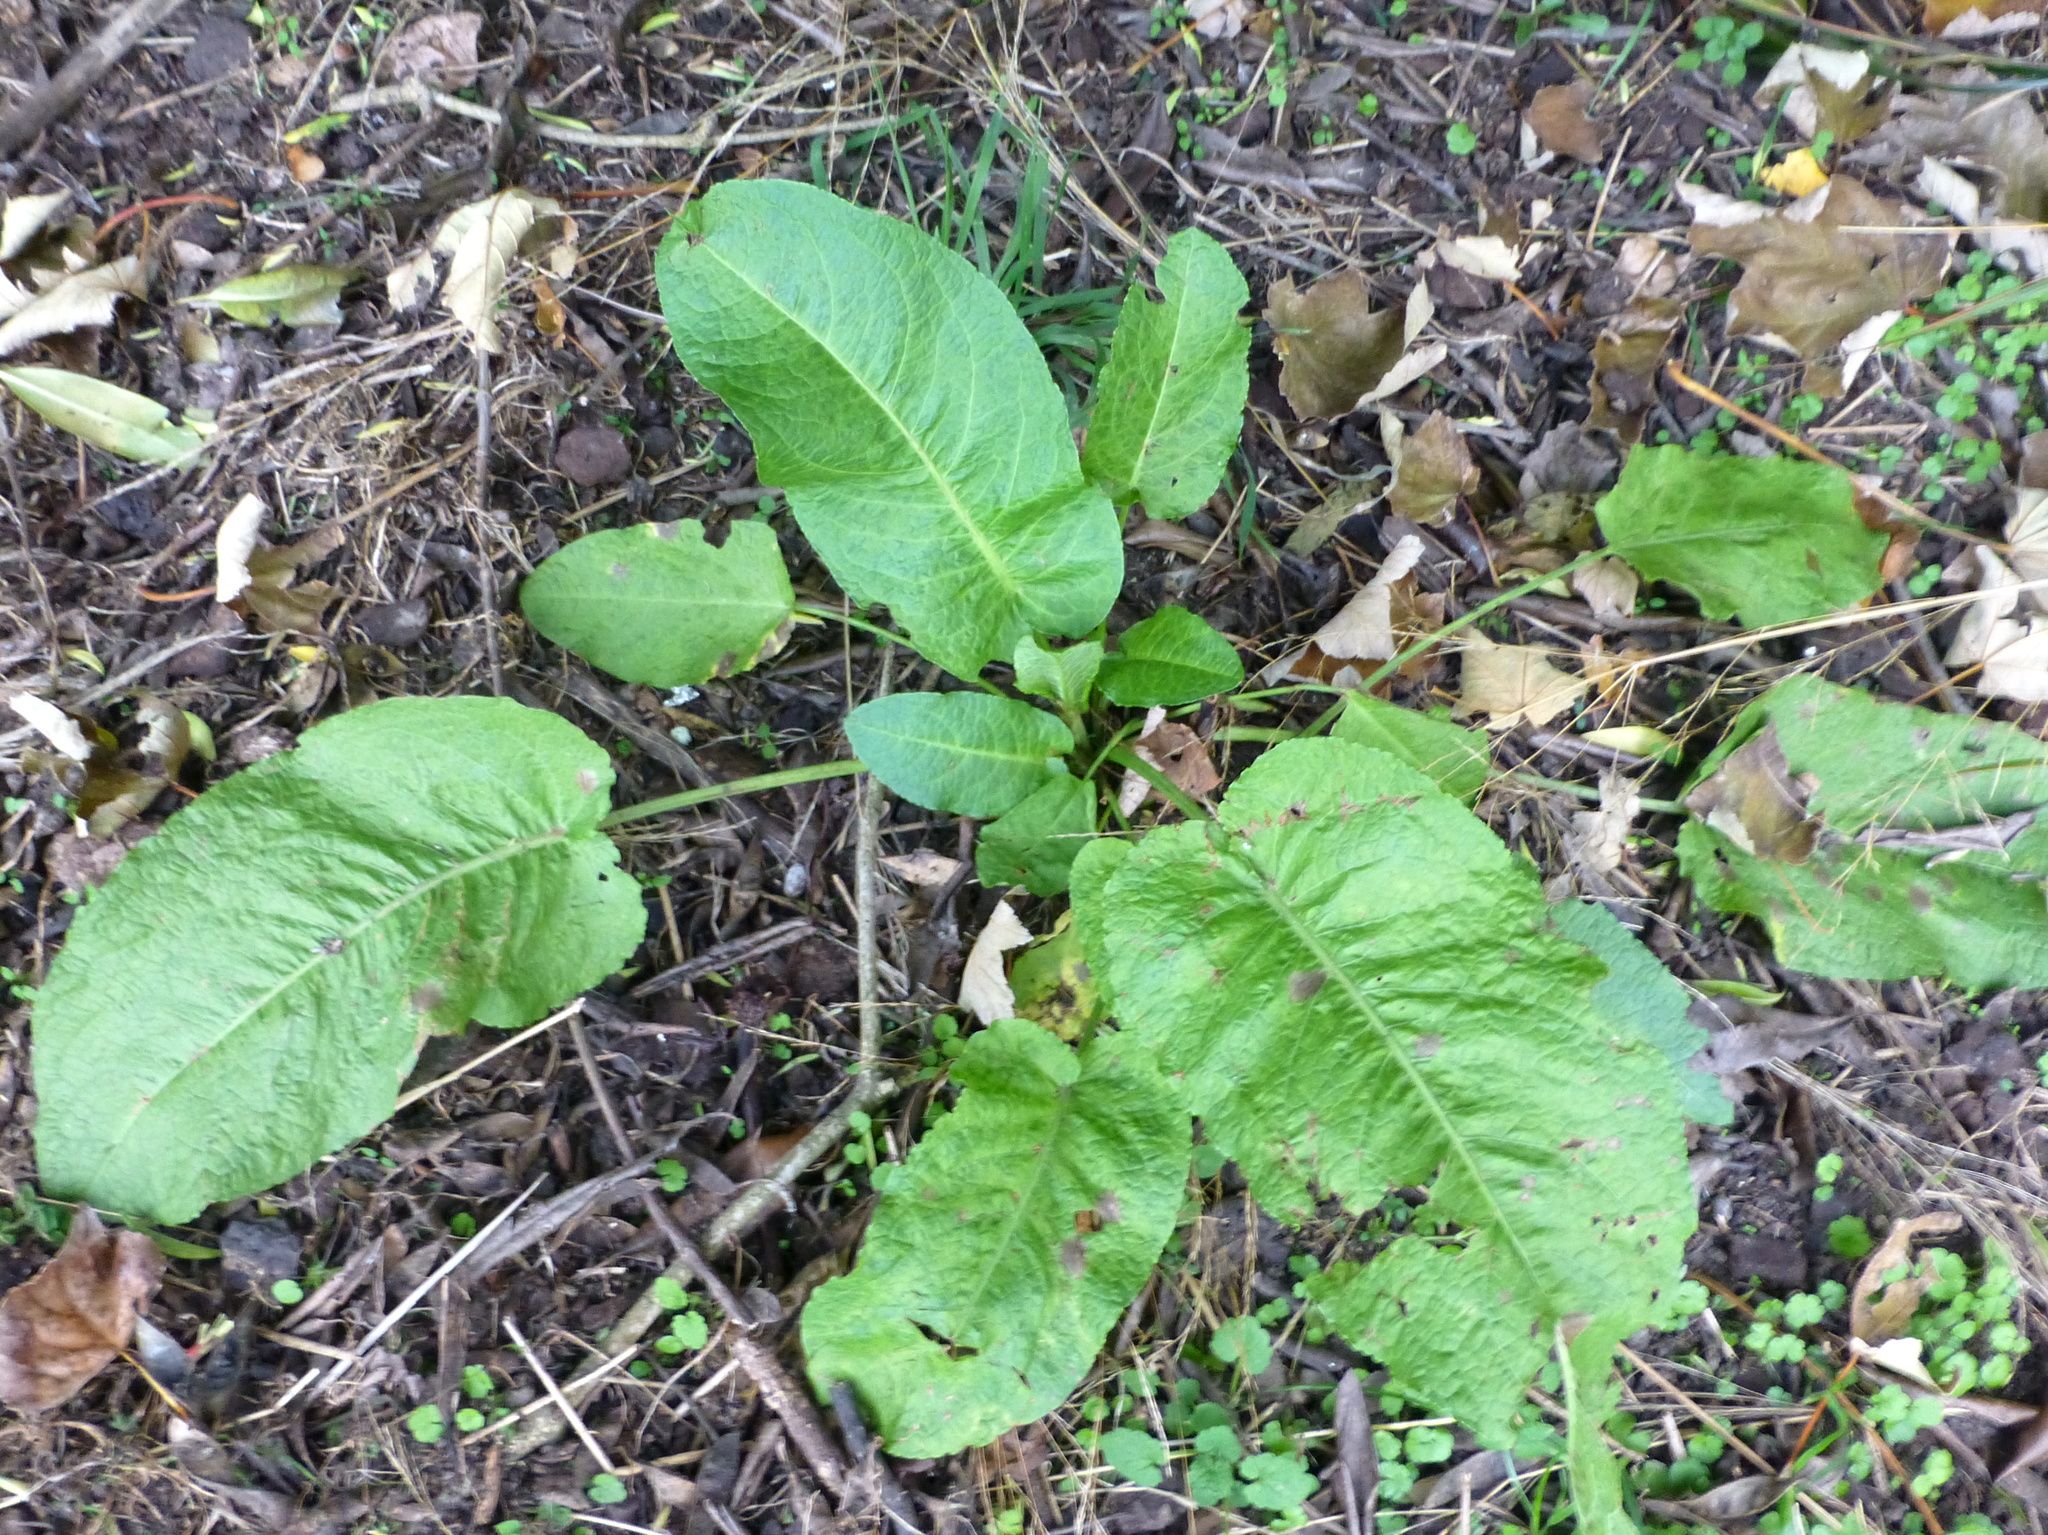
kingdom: Plantae
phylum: Tracheophyta
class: Magnoliopsida
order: Caryophyllales
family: Polygonaceae
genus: Rumex
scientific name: Rumex obtusifolius
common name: Bitter dock
